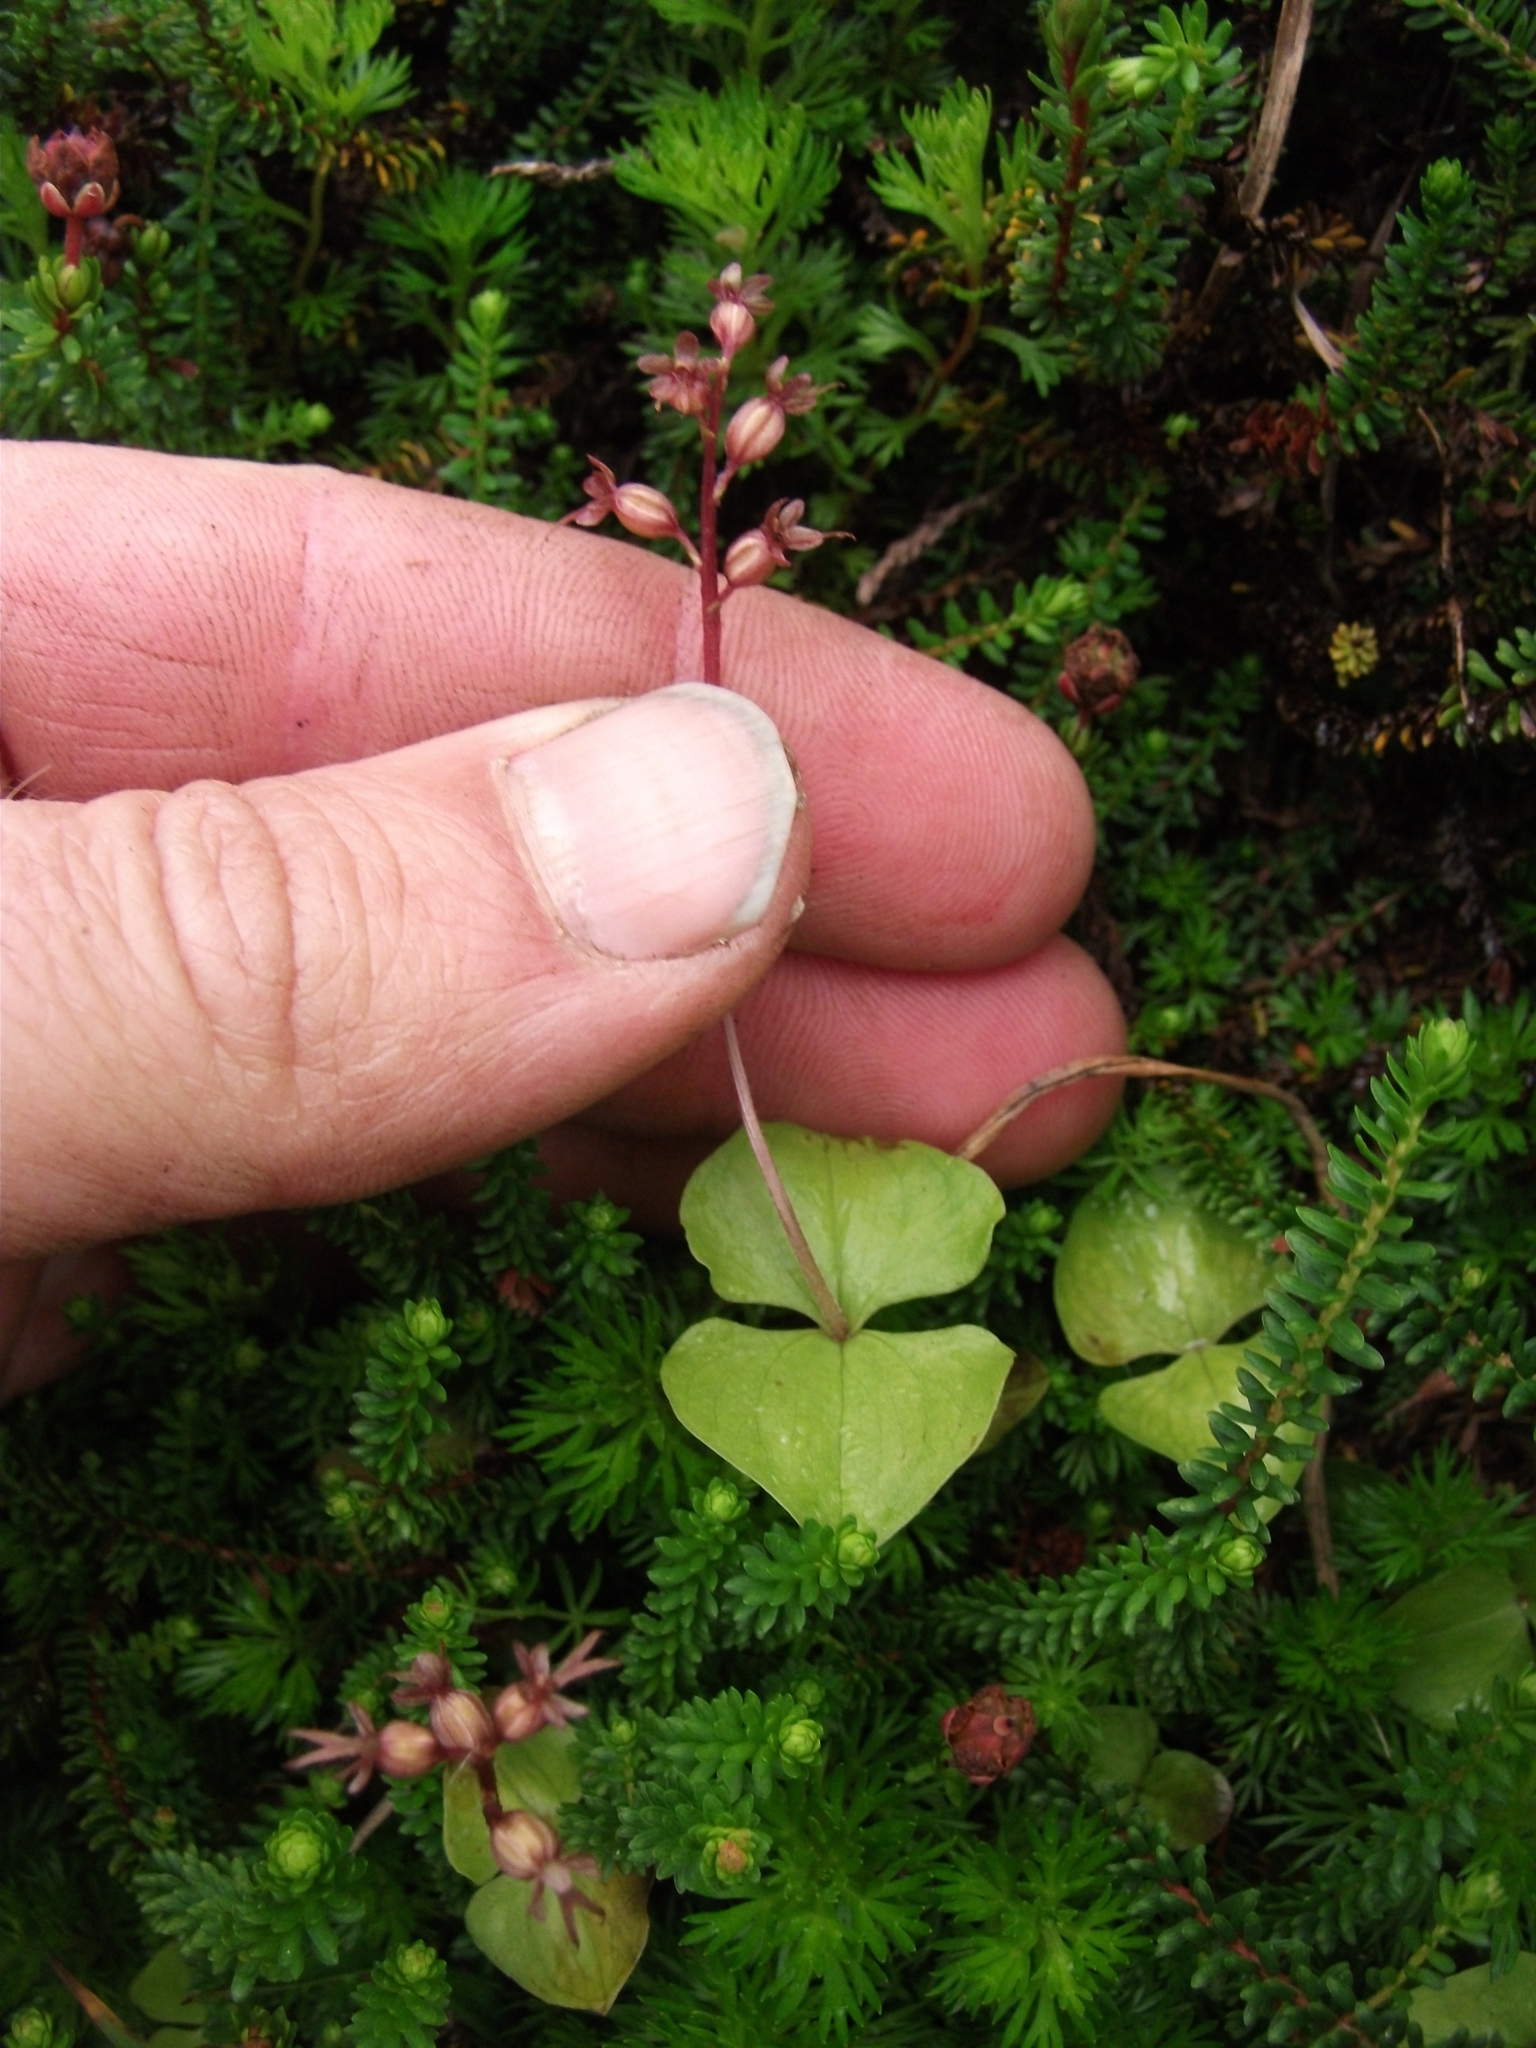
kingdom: Plantae
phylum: Tracheophyta
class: Liliopsida
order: Asparagales
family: Orchidaceae
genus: Neottia
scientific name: Neottia cordata
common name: Lesser twayblade
